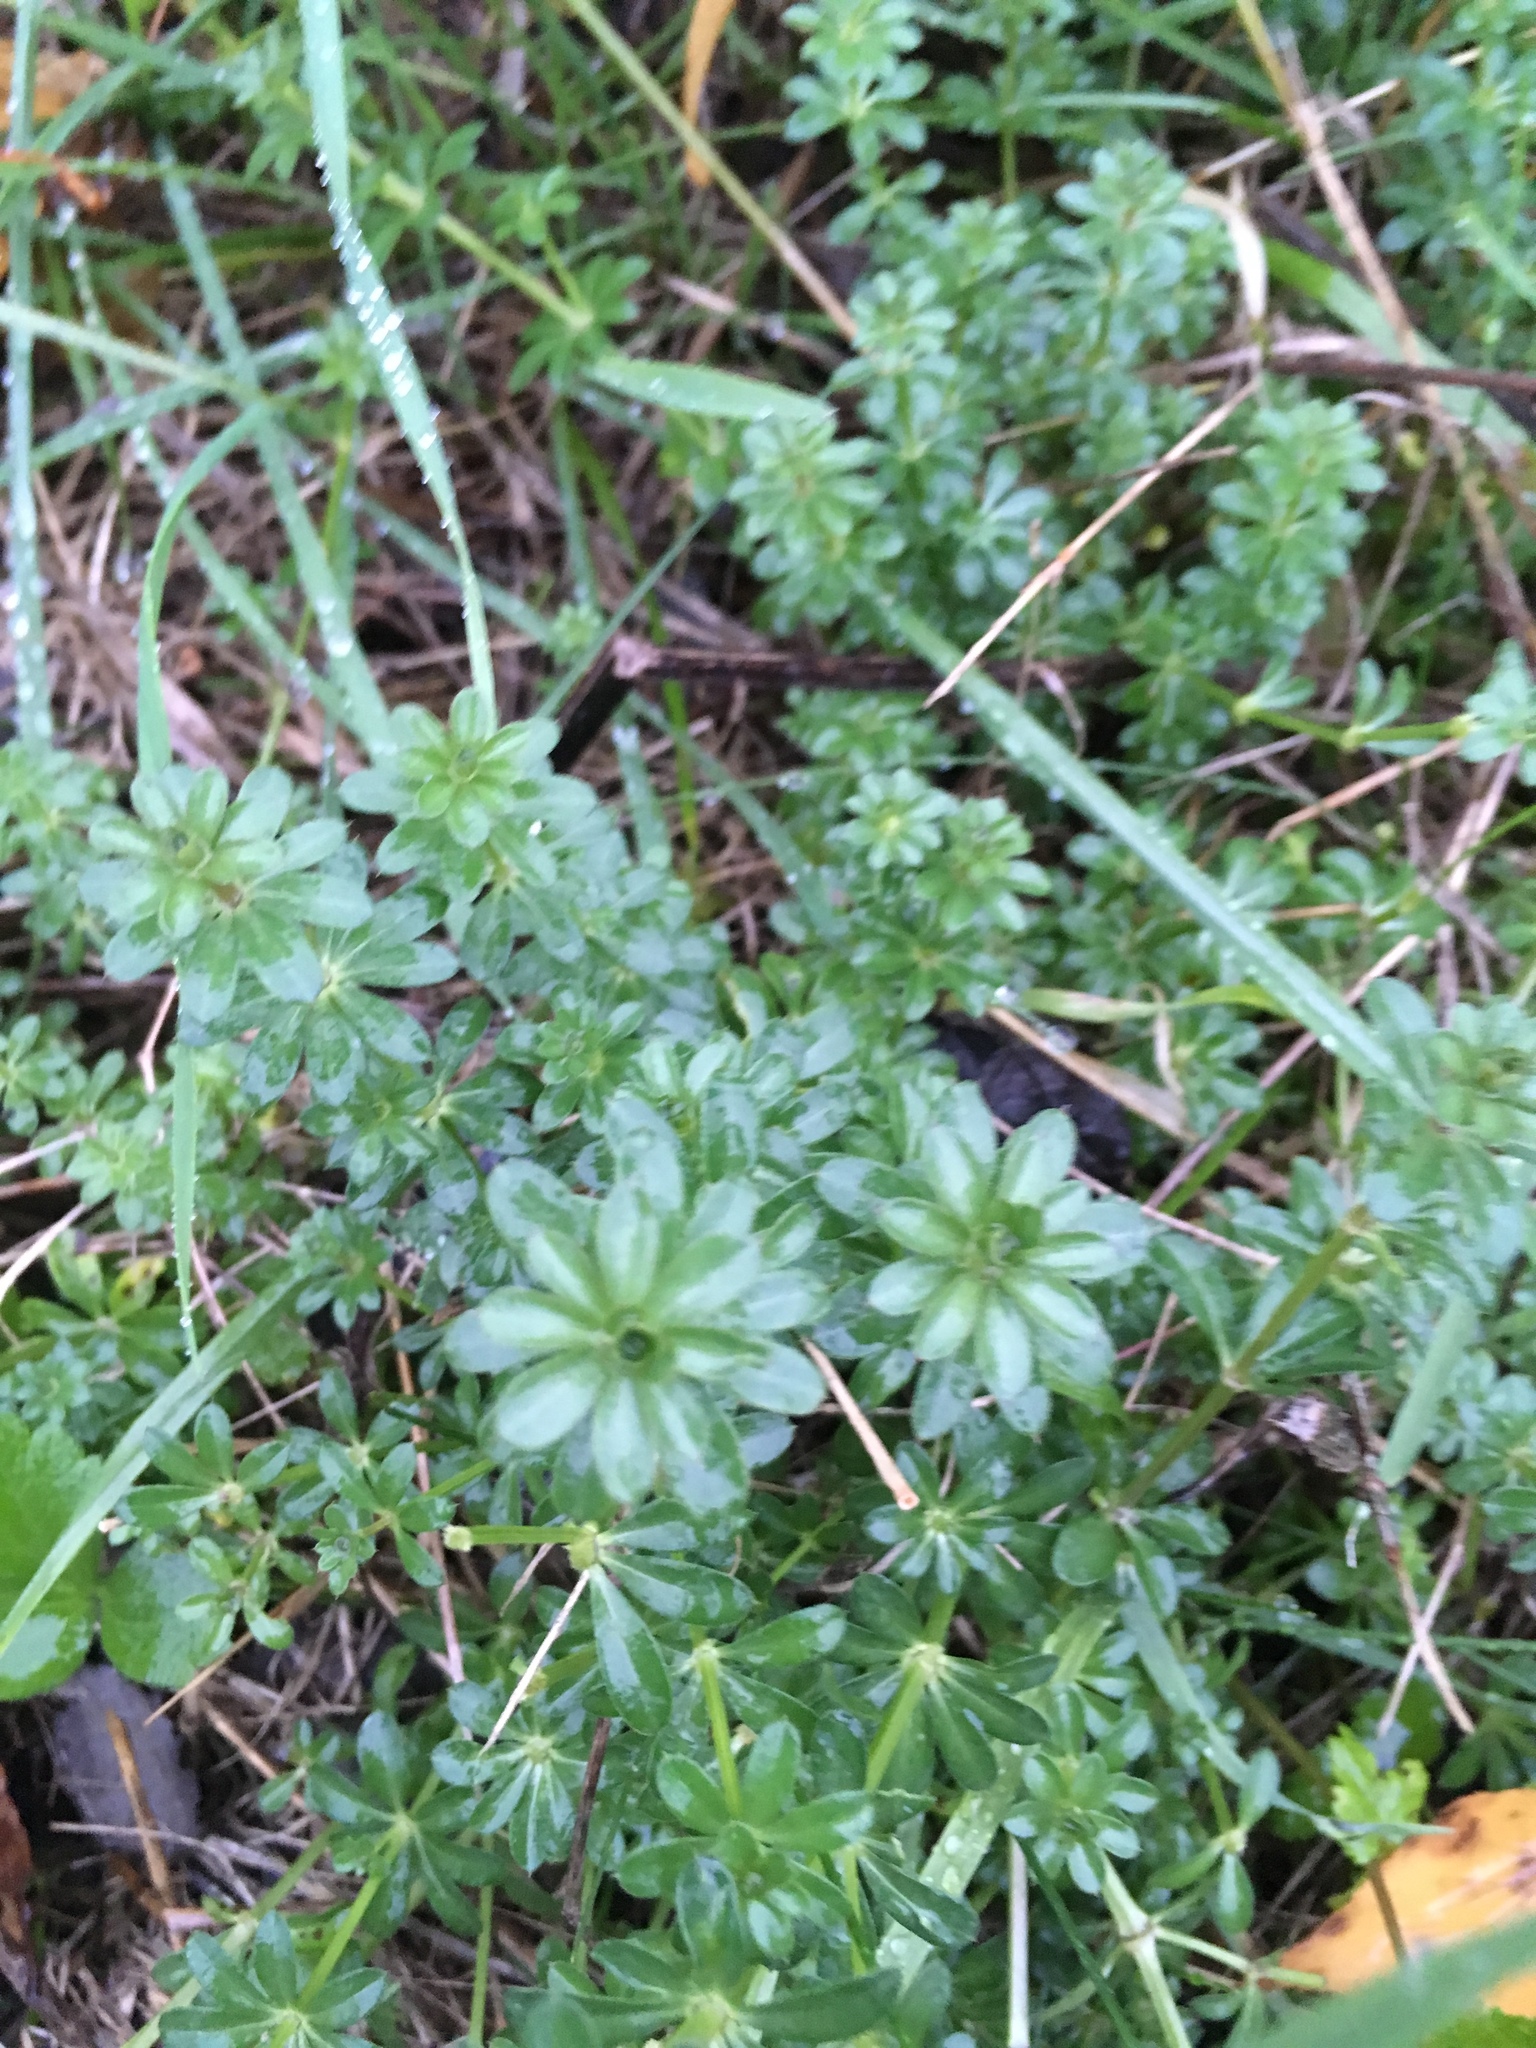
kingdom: Plantae
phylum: Tracheophyta
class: Magnoliopsida
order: Gentianales
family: Rubiaceae
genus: Galium
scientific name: Galium mollugo
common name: Hedge bedstraw
